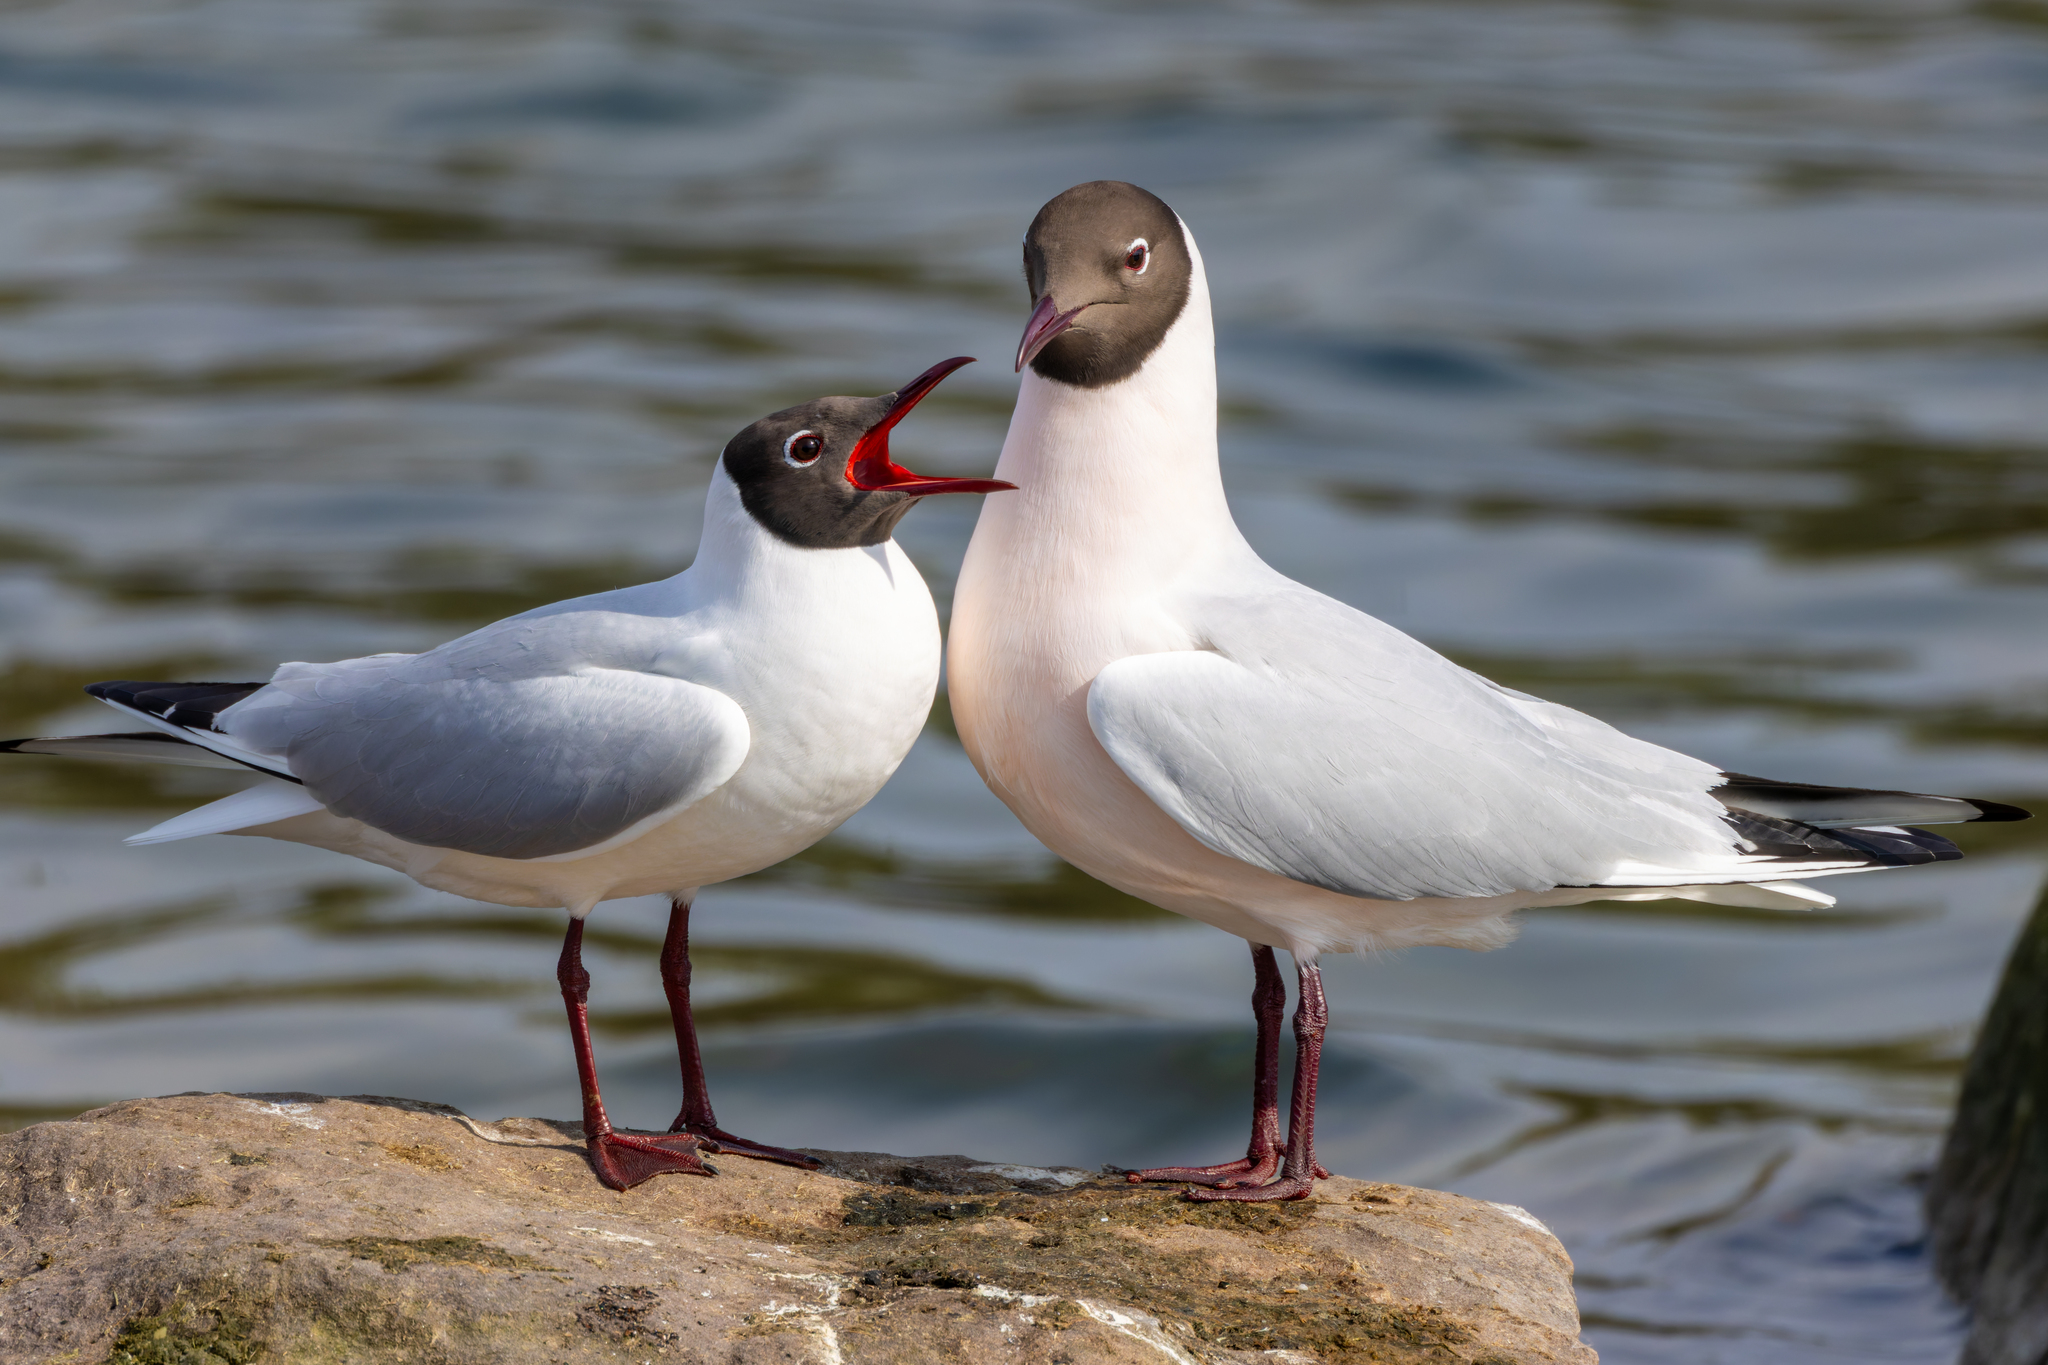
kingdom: Animalia
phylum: Chordata
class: Aves
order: Charadriiformes
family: Laridae
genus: Chroicocephalus
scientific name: Chroicocephalus ridibundus
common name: Black-headed gull
